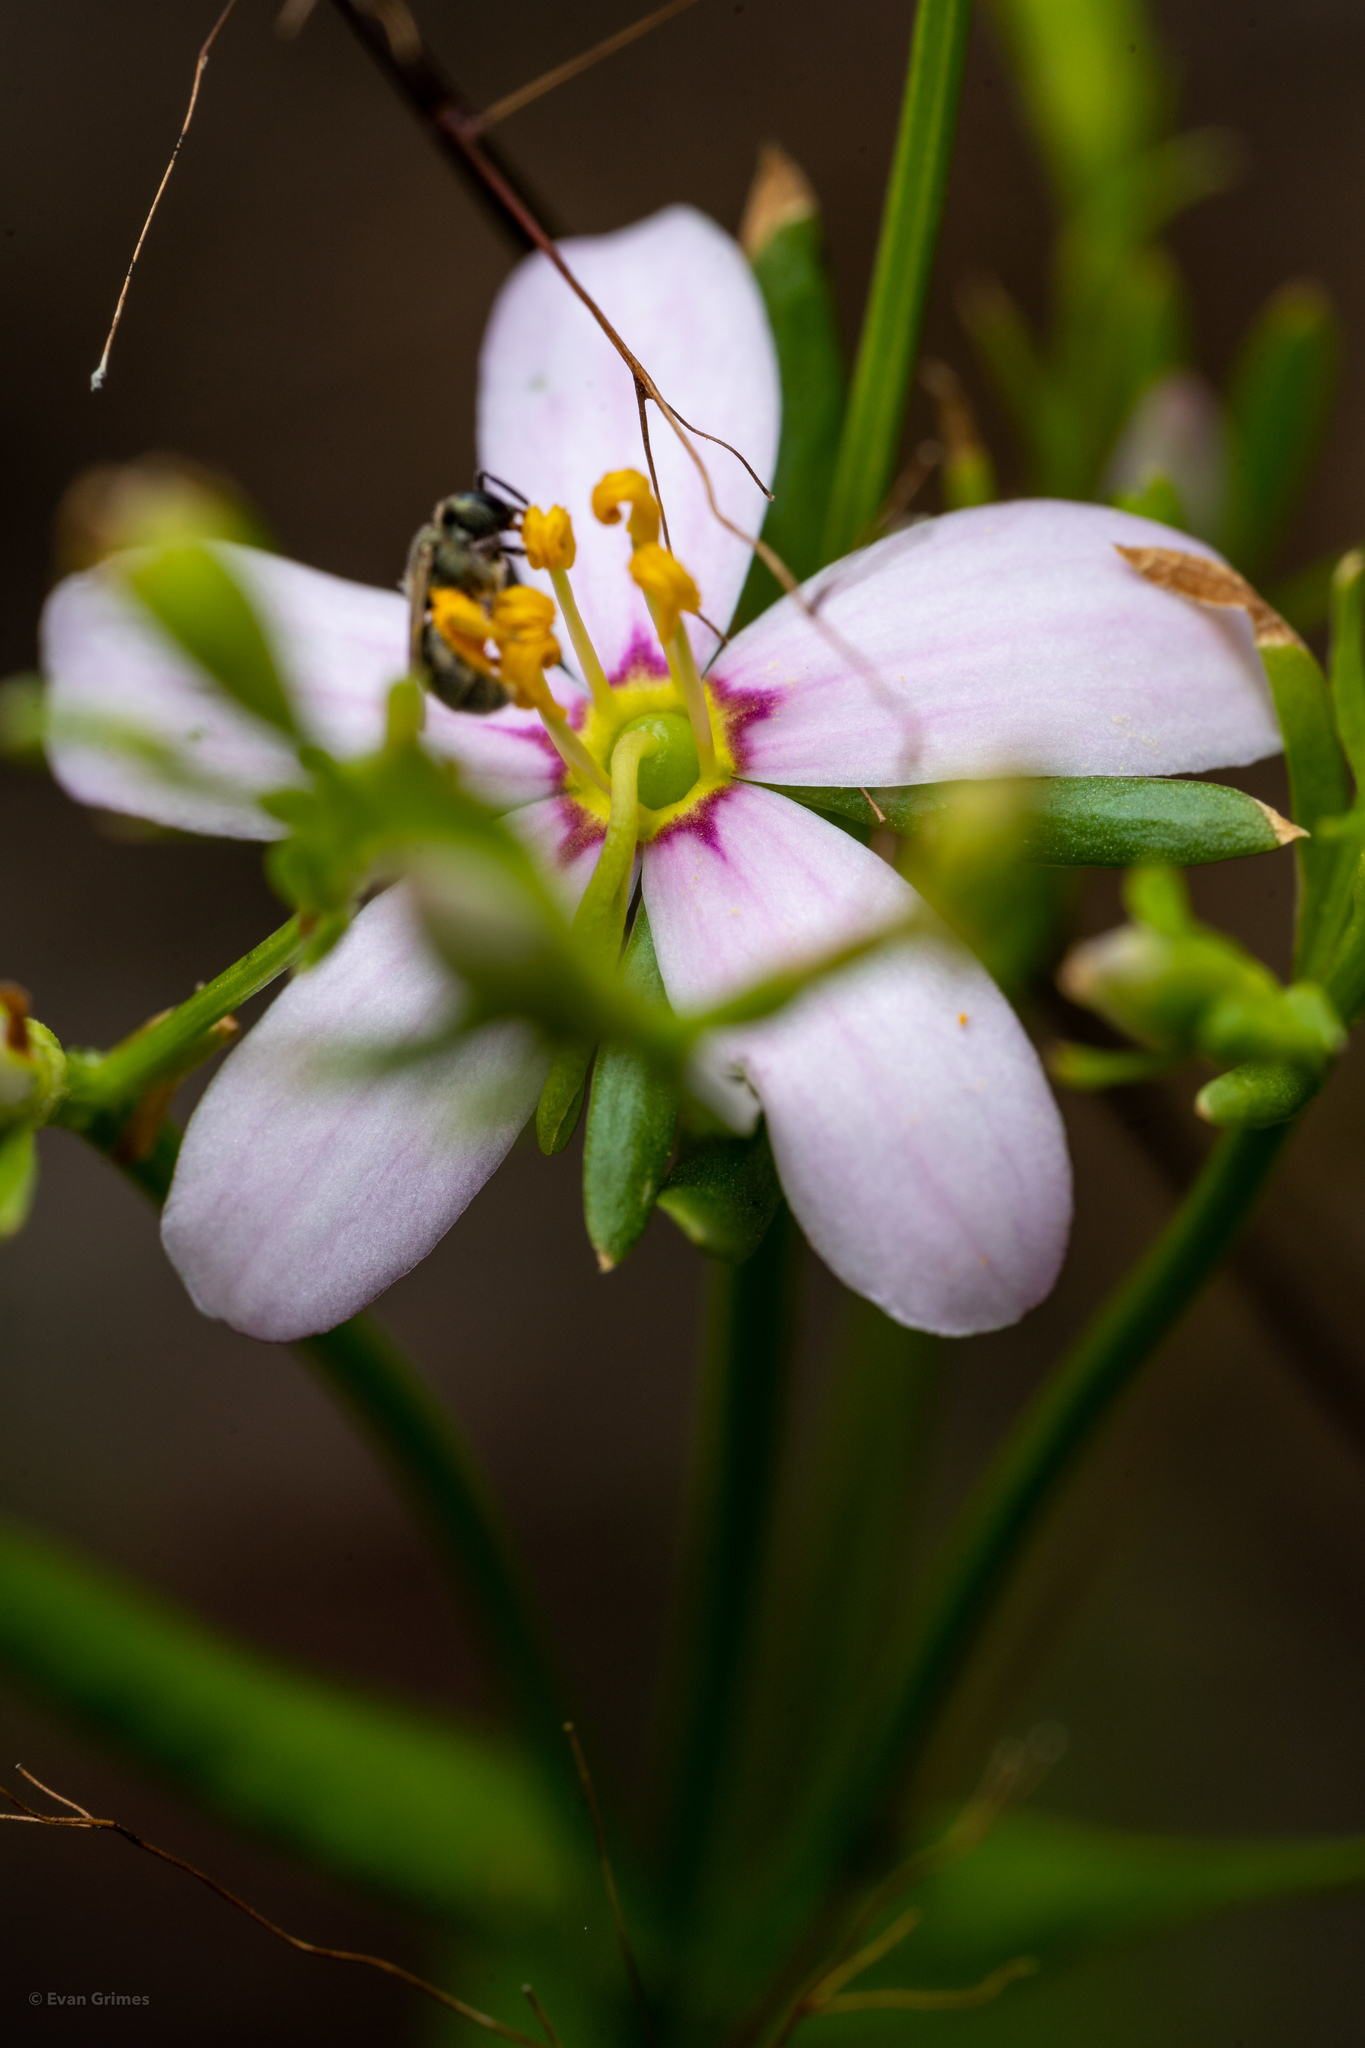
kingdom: Plantae
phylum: Tracheophyta
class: Magnoliopsida
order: Gentianales
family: Gentianaceae
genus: Sabatia
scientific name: Sabatia angularis
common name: Rose-pink
